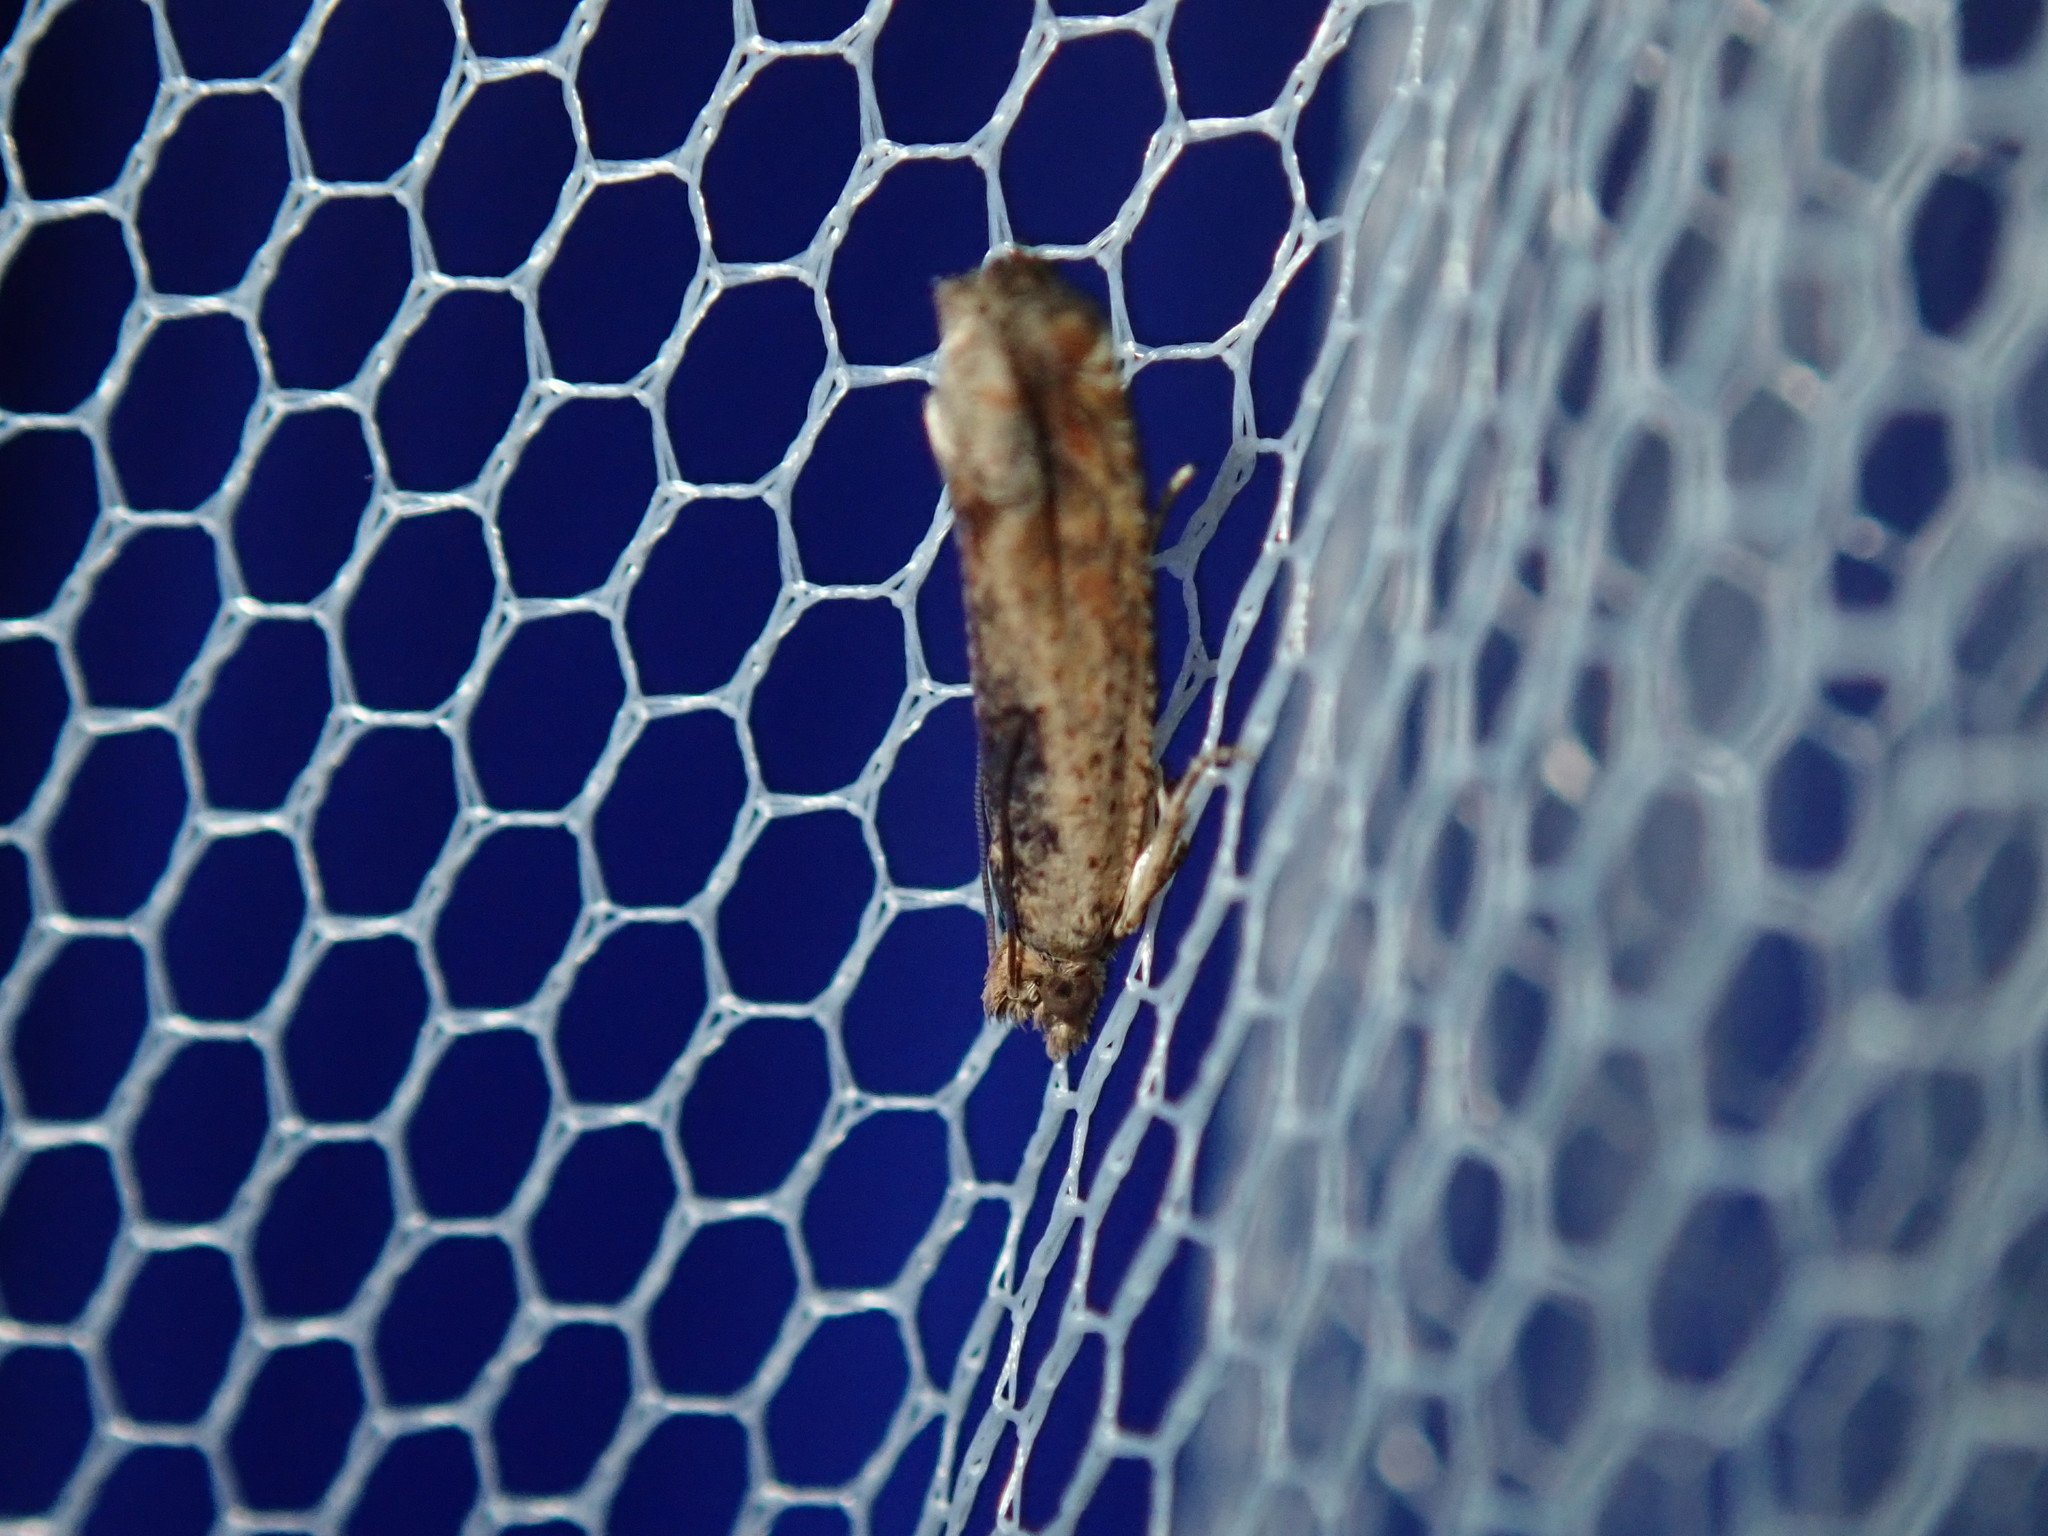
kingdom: Animalia
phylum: Arthropoda
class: Insecta
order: Lepidoptera
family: Tortricidae
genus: Crocidosema
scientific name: Crocidosema plebejana
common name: Southern bell
